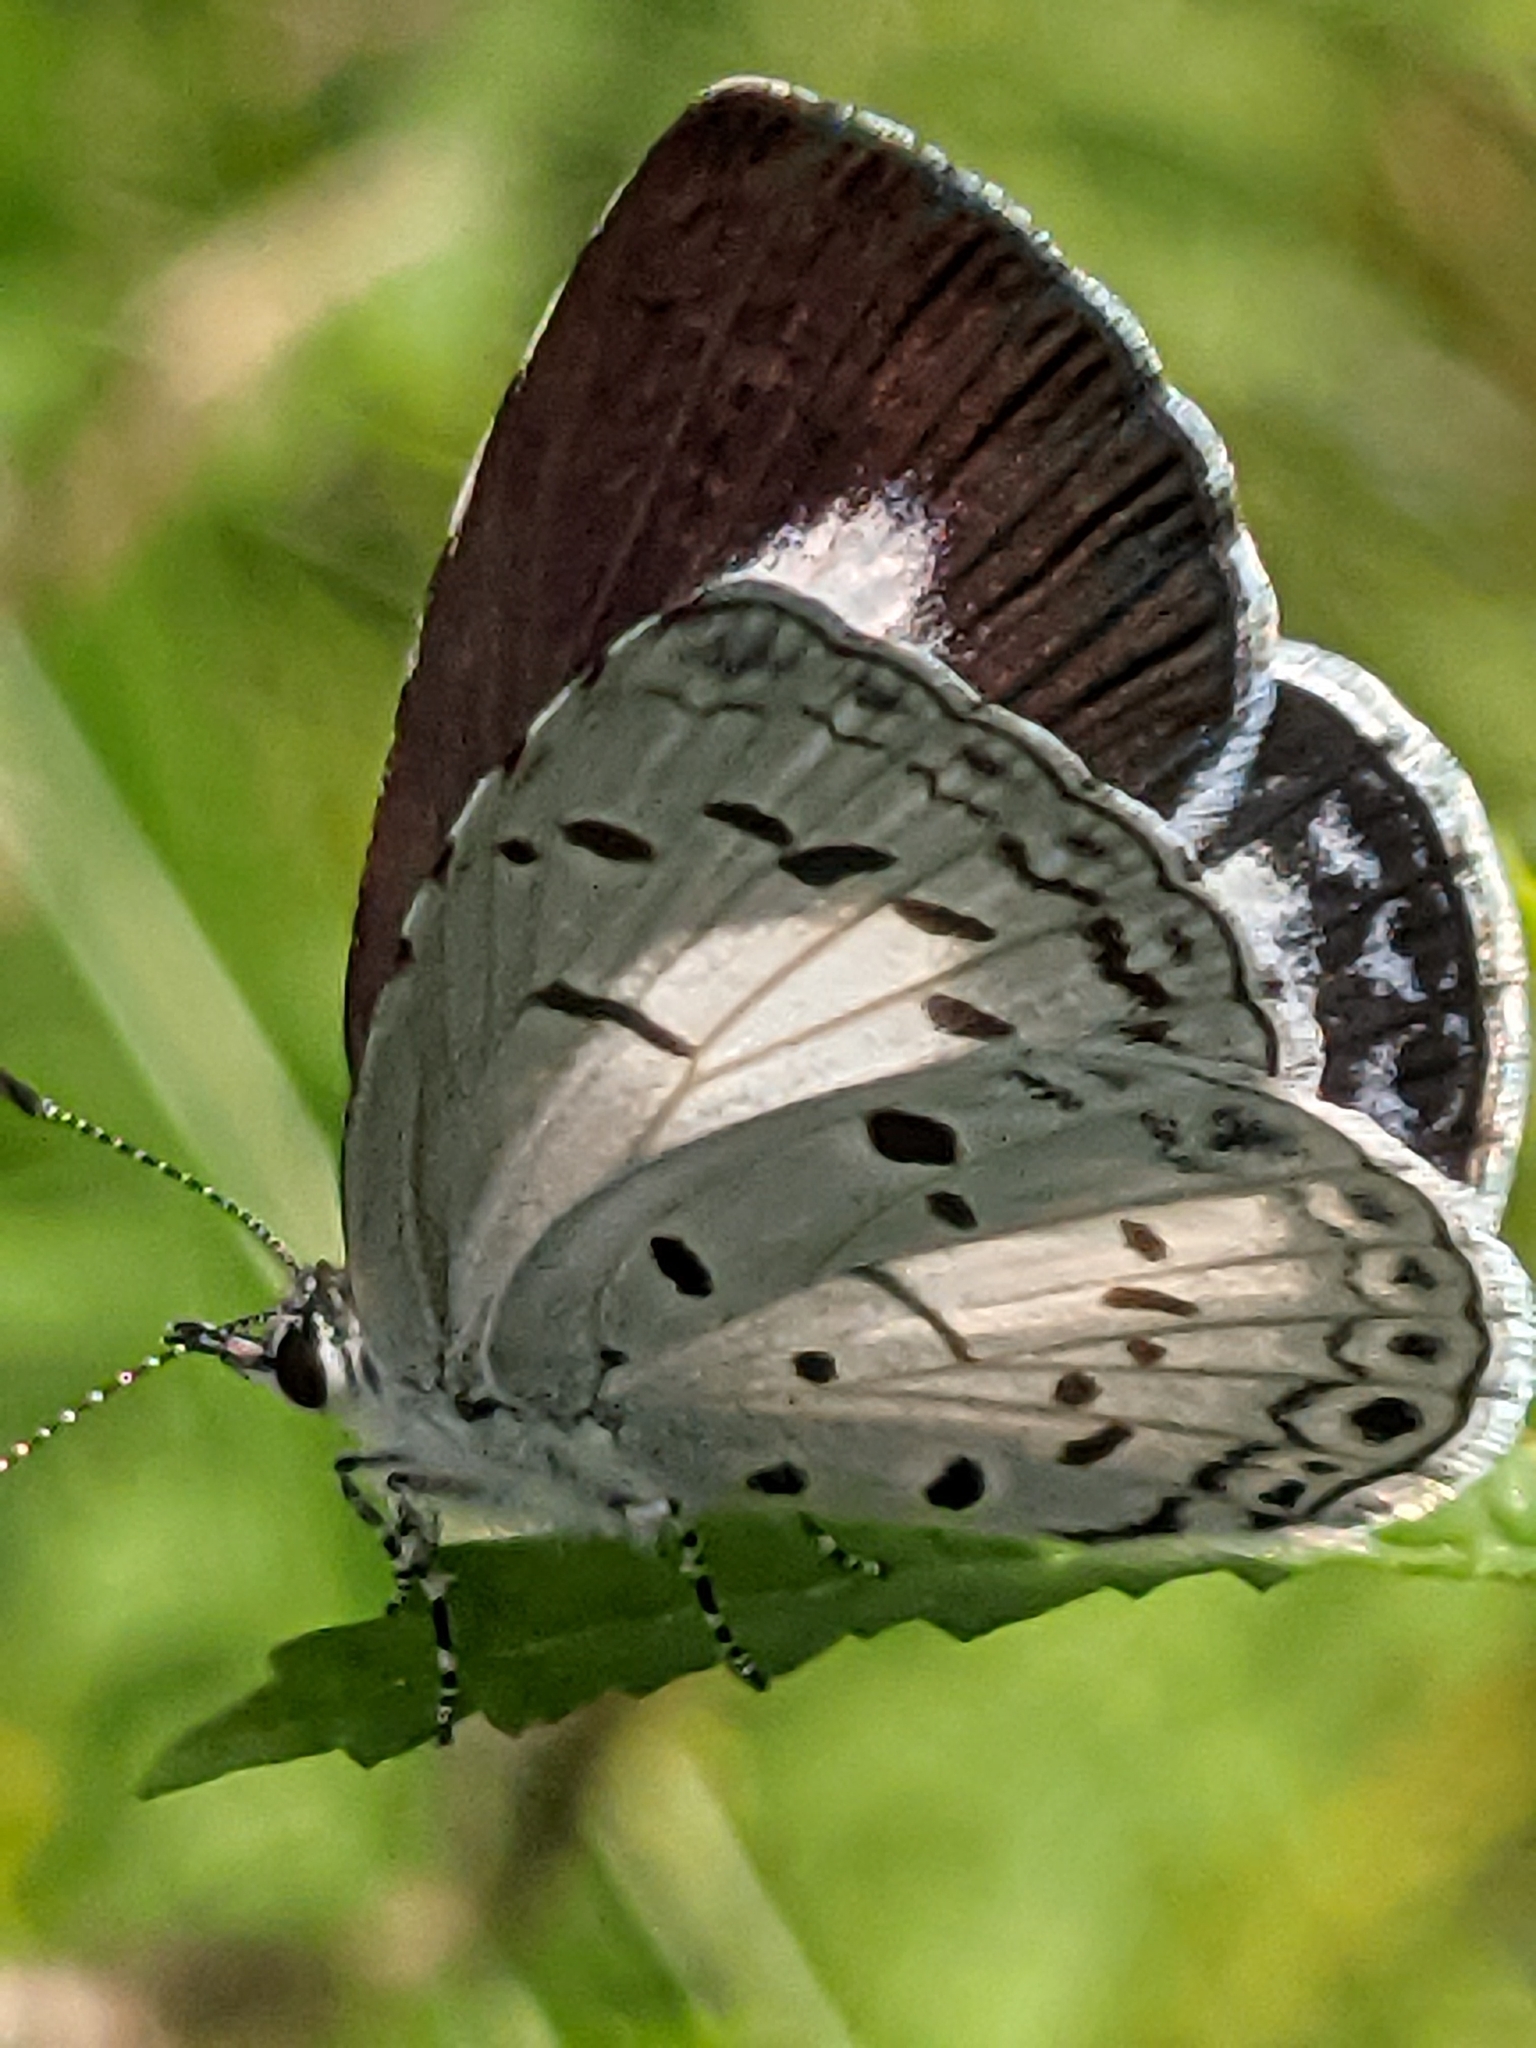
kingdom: Animalia
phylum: Arthropoda
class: Insecta
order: Lepidoptera
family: Lycaenidae
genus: Acytolepis
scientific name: Acytolepis puspa
